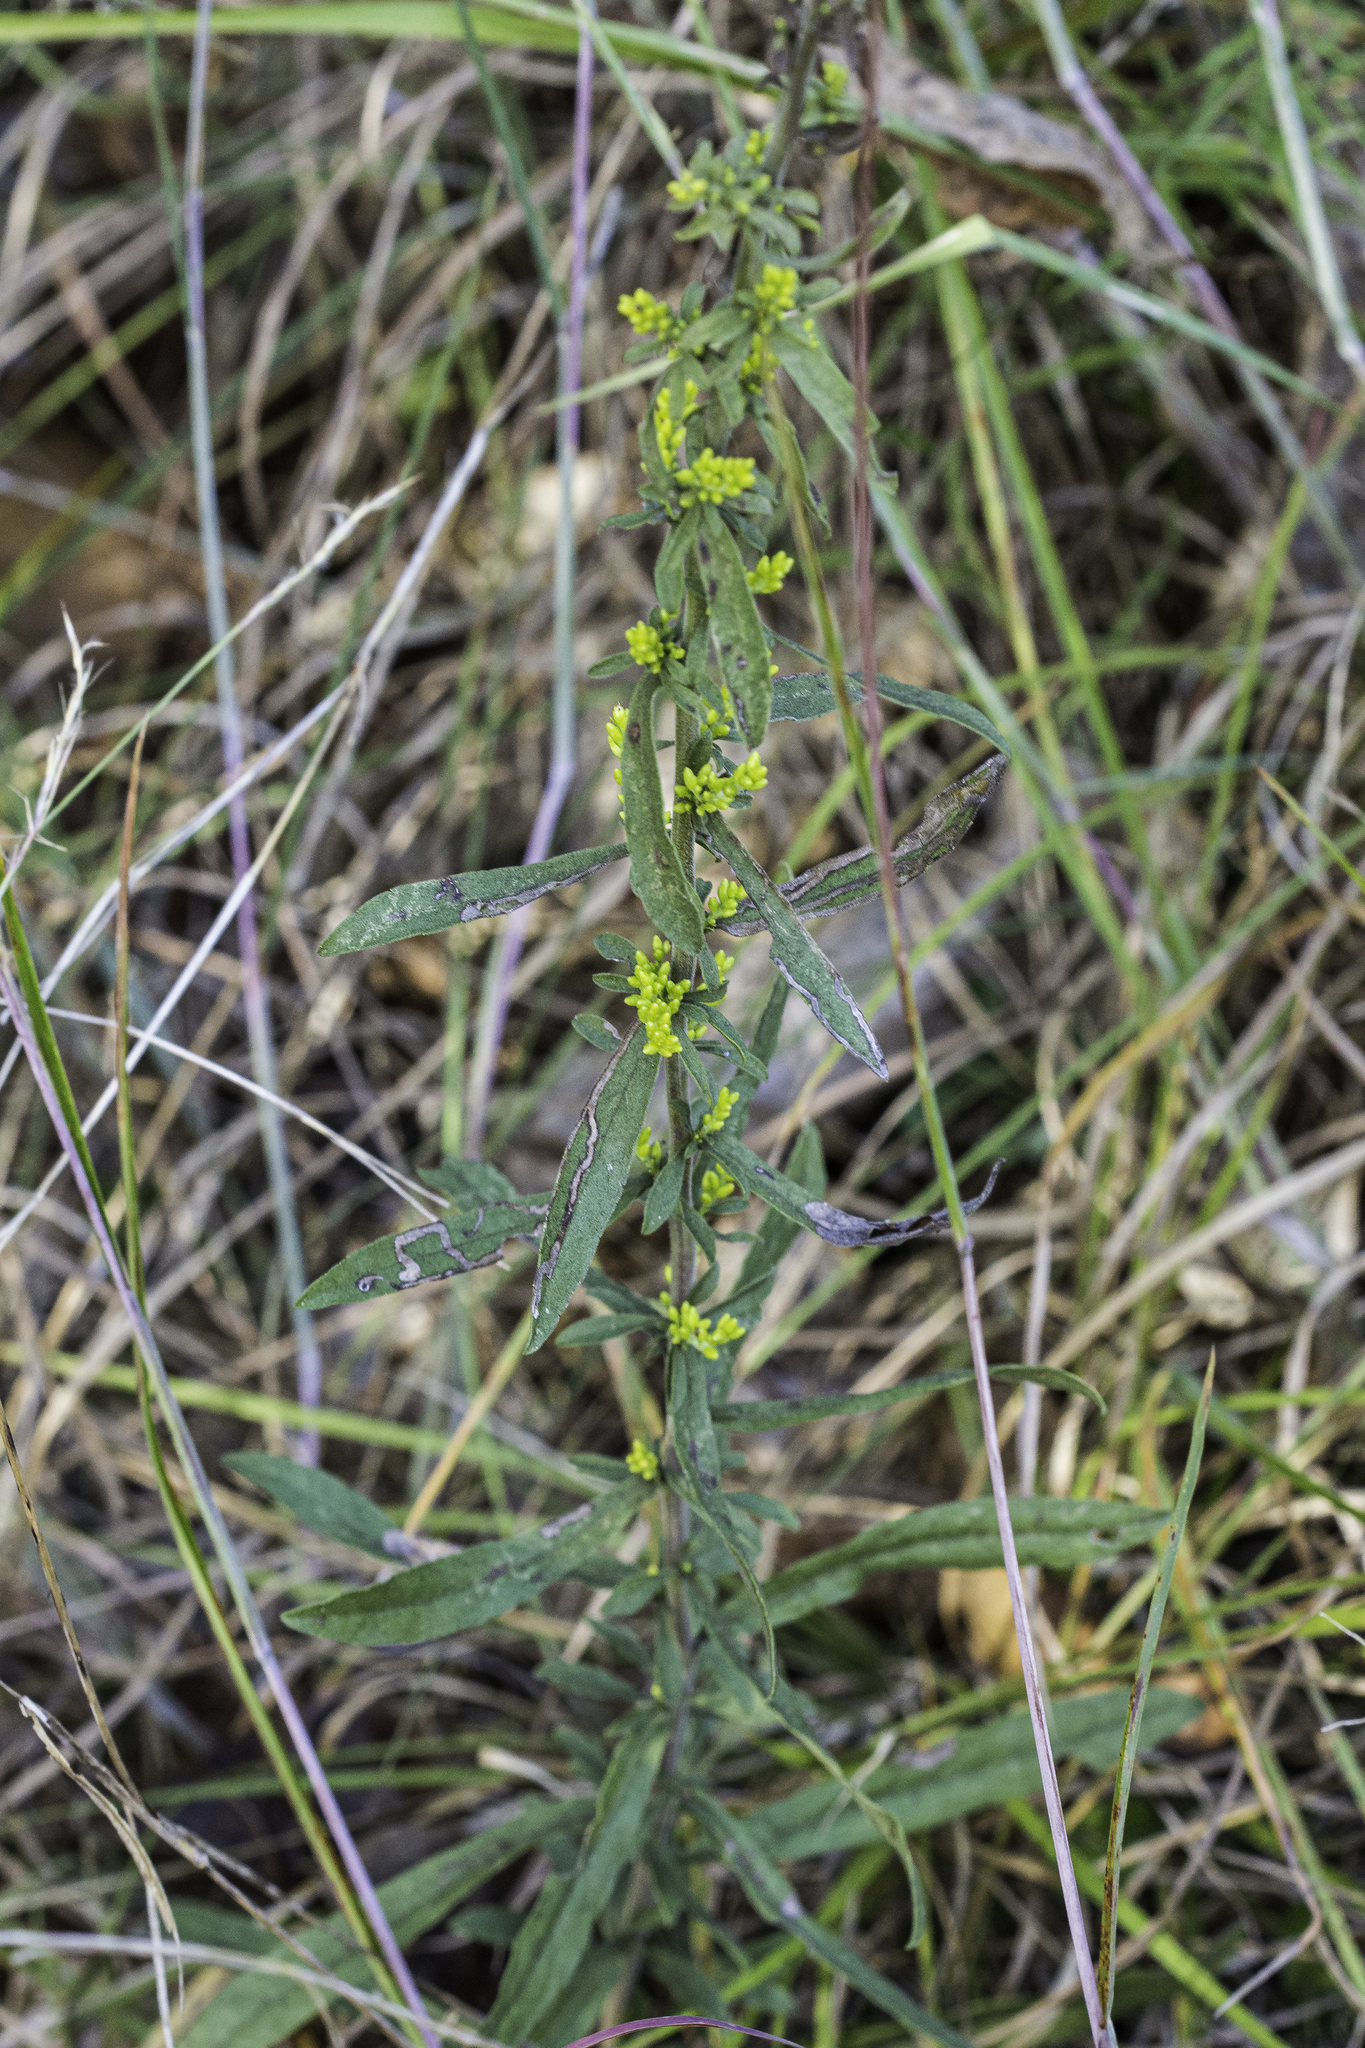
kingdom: Plantae
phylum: Tracheophyta
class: Magnoliopsida
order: Asterales
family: Asteraceae
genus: Solidago
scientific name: Solidago caesia
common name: Woodland goldenrod
